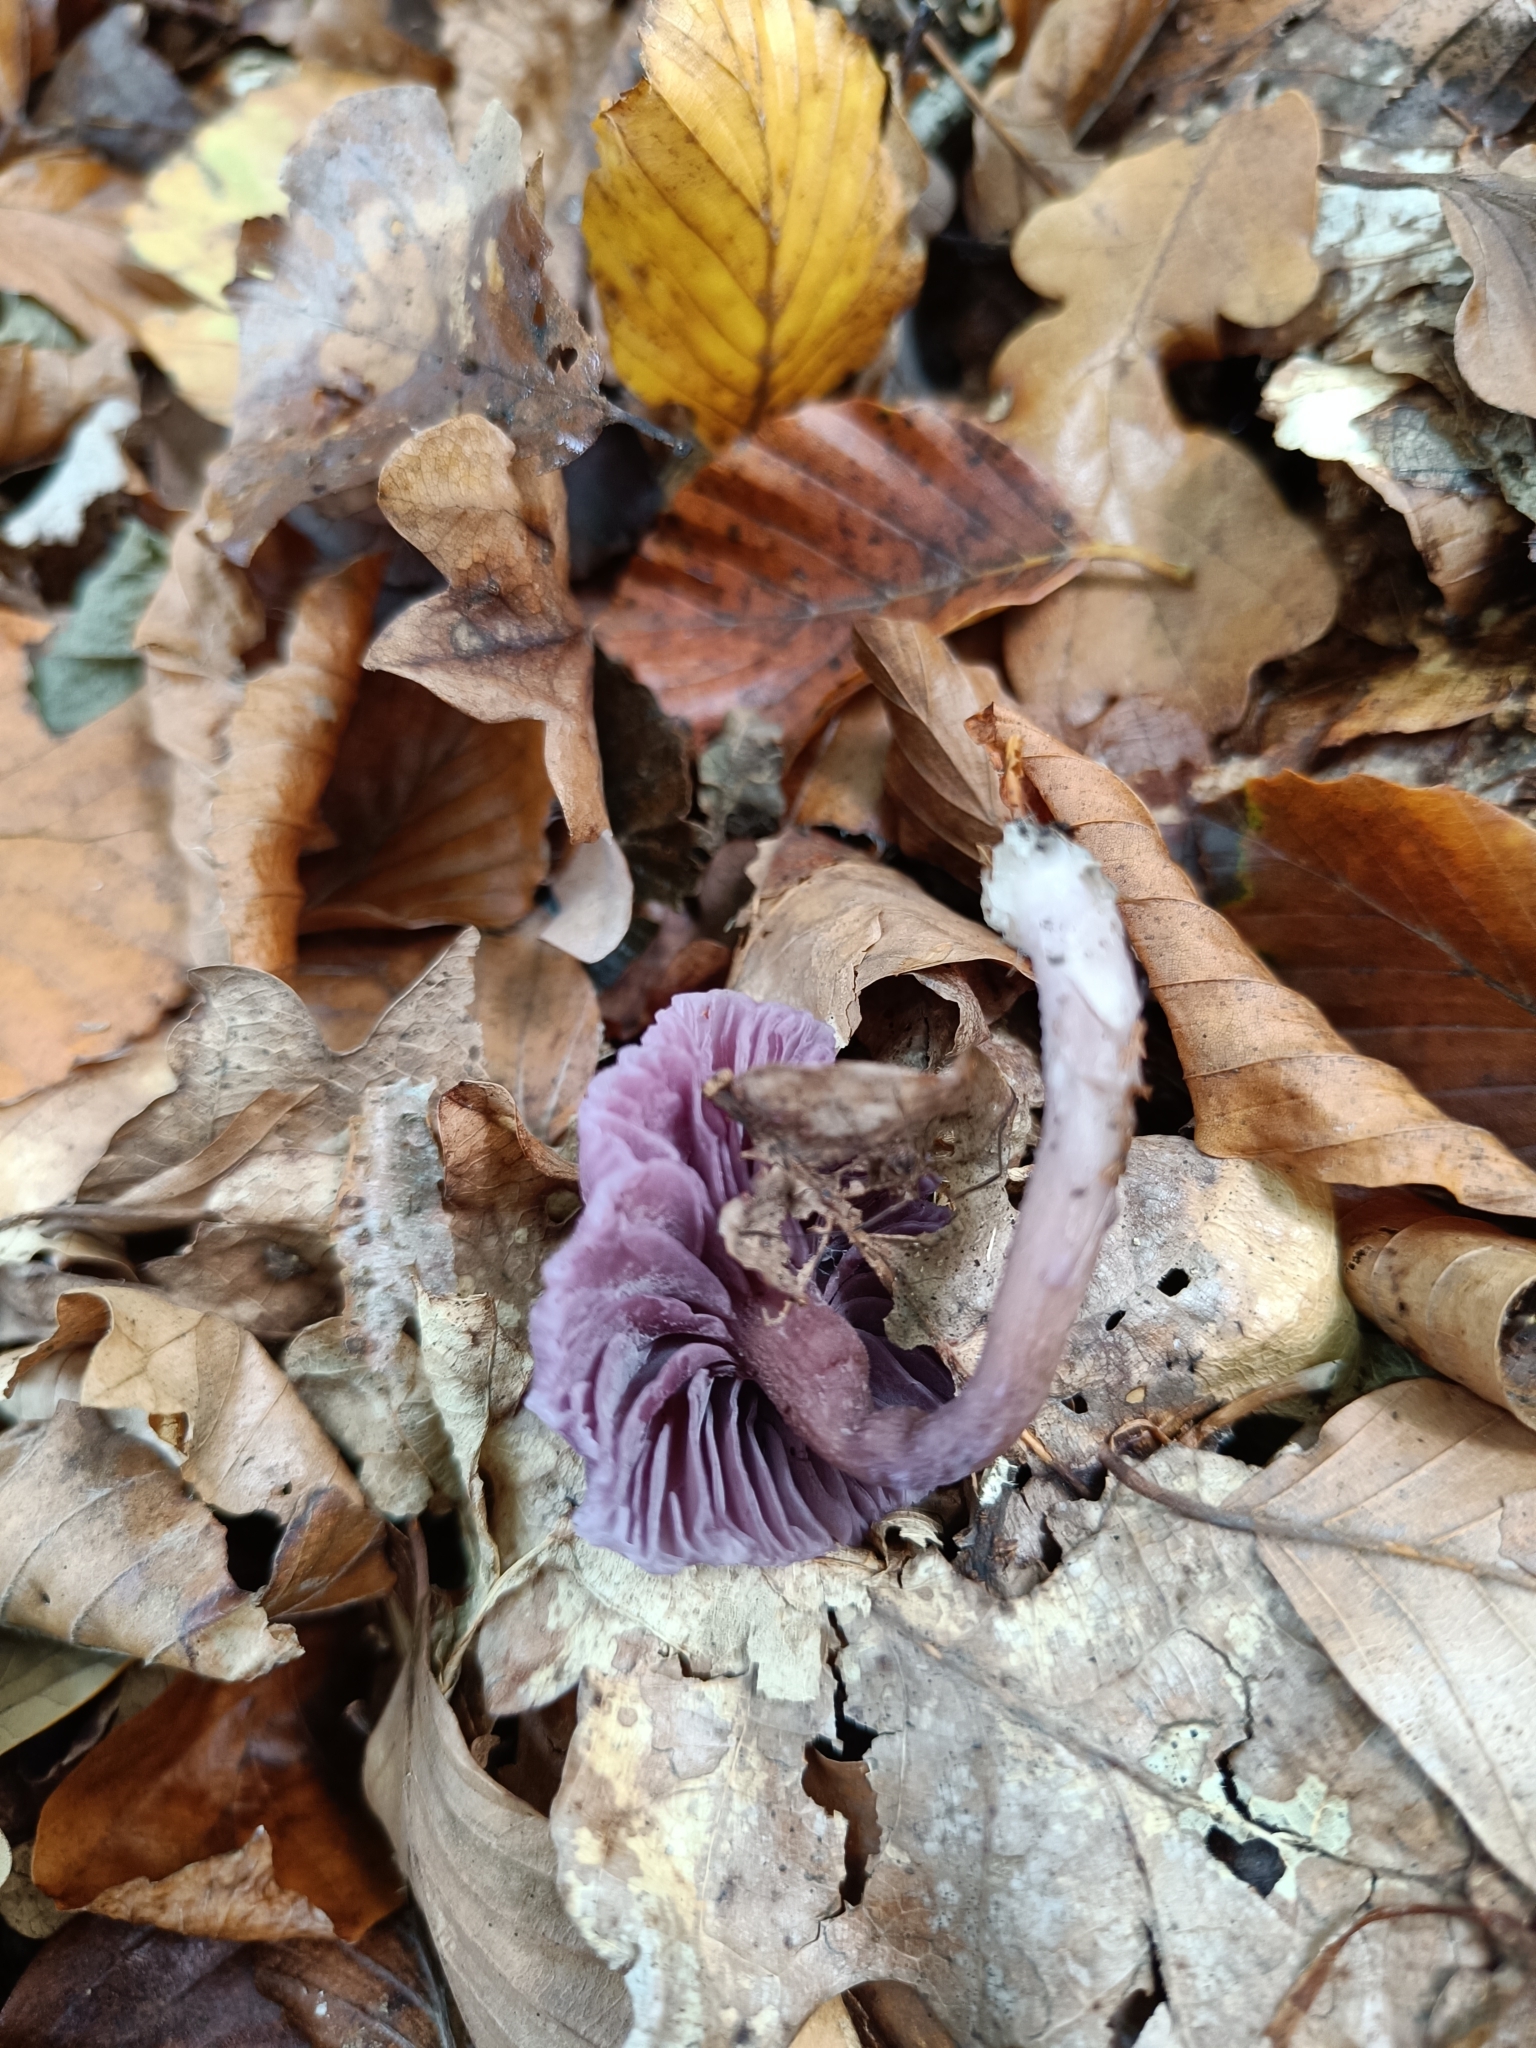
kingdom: Fungi
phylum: Basidiomycota
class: Agaricomycetes
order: Agaricales
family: Hydnangiaceae
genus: Laccaria
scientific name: Laccaria amethystina
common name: Amethyst deceiver
